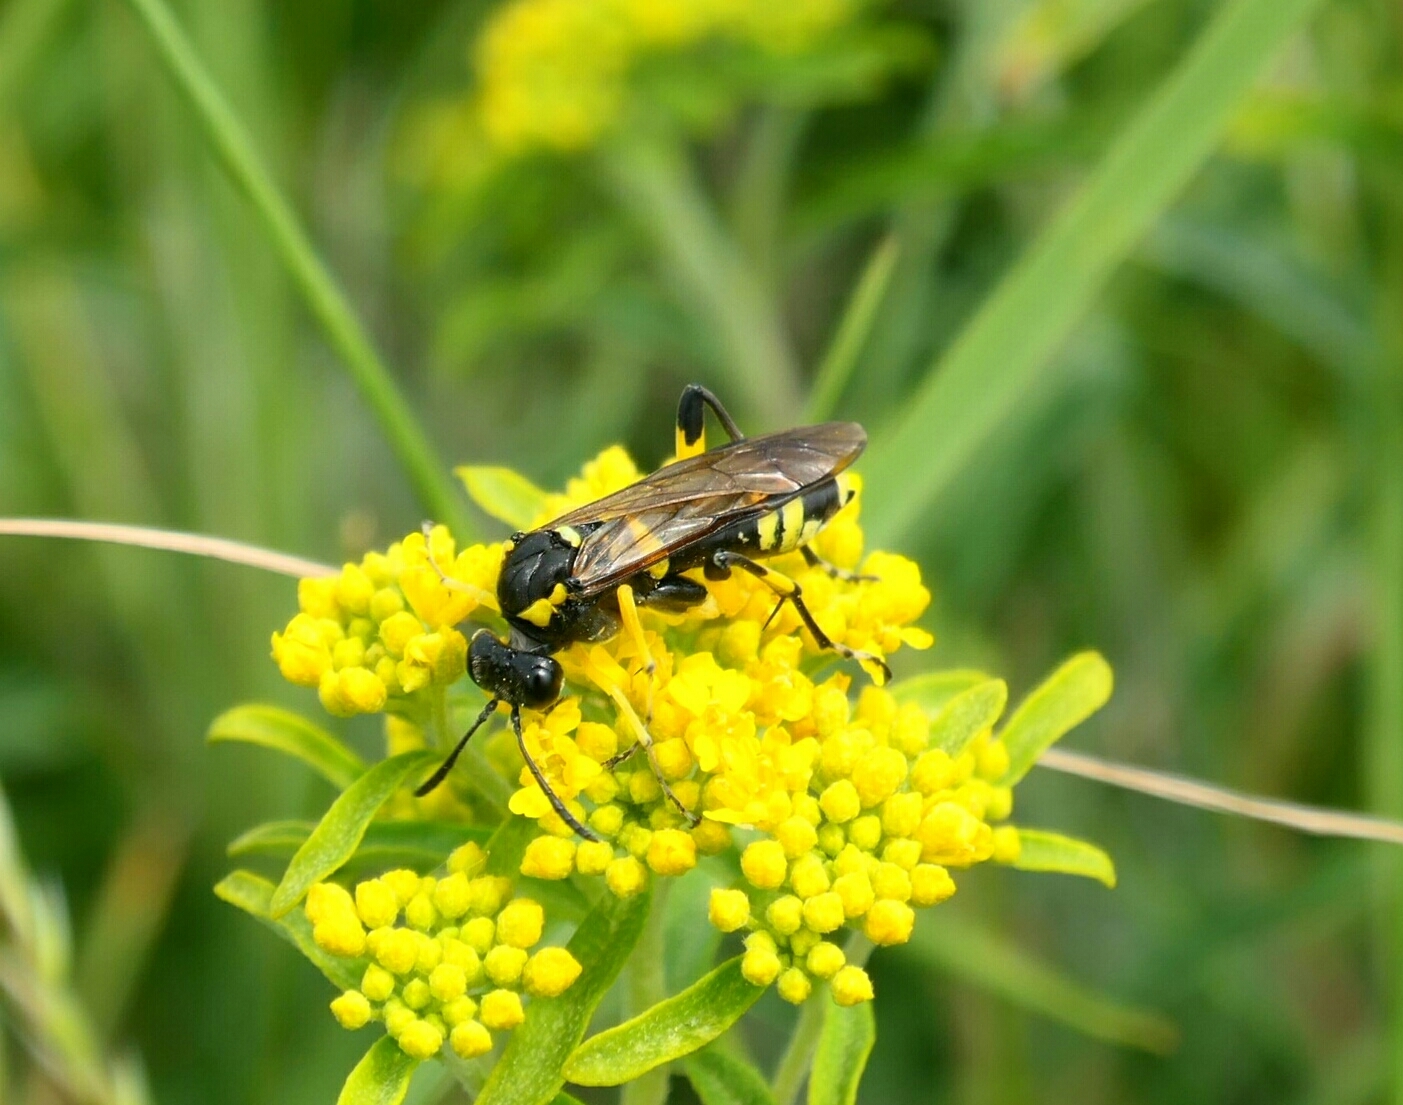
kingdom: Animalia
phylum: Arthropoda
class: Insecta
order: Hymenoptera
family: Tenthredinidae
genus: Macrophya
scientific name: Macrophya montana
